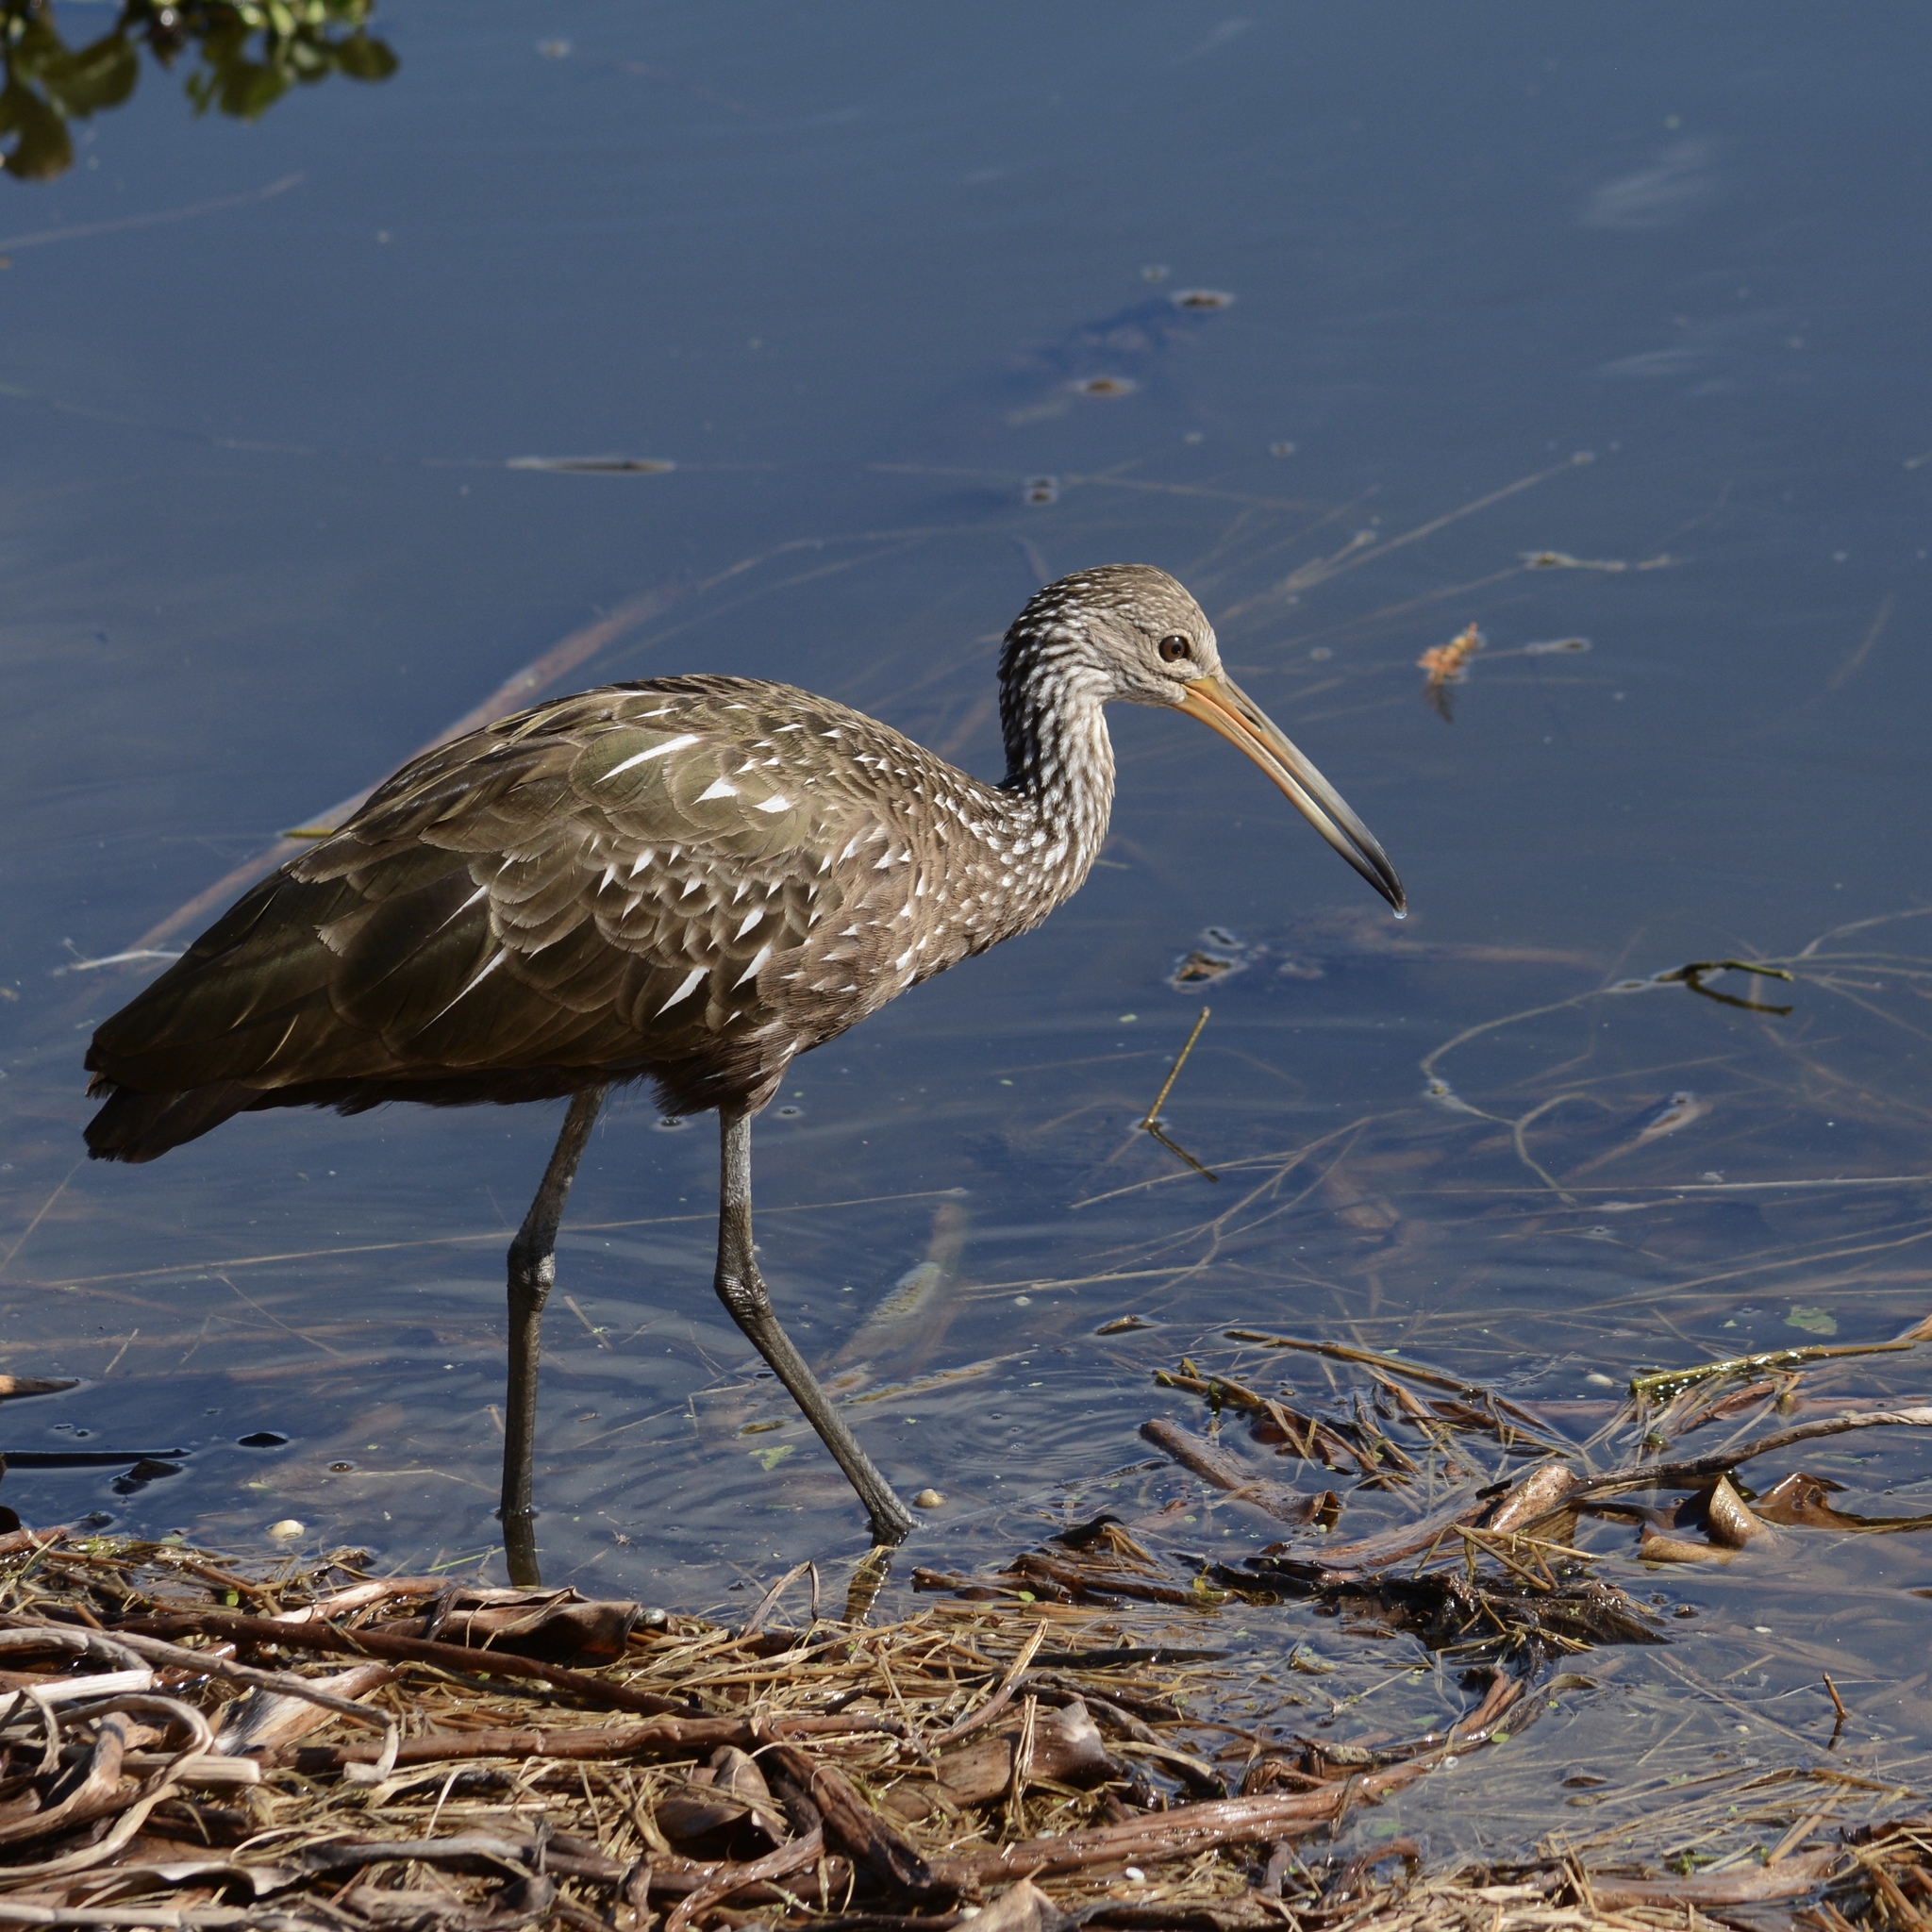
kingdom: Animalia
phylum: Chordata
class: Aves
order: Gruiformes
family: Aramidae
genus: Aramus
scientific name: Aramus guarauna
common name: Limpkin
